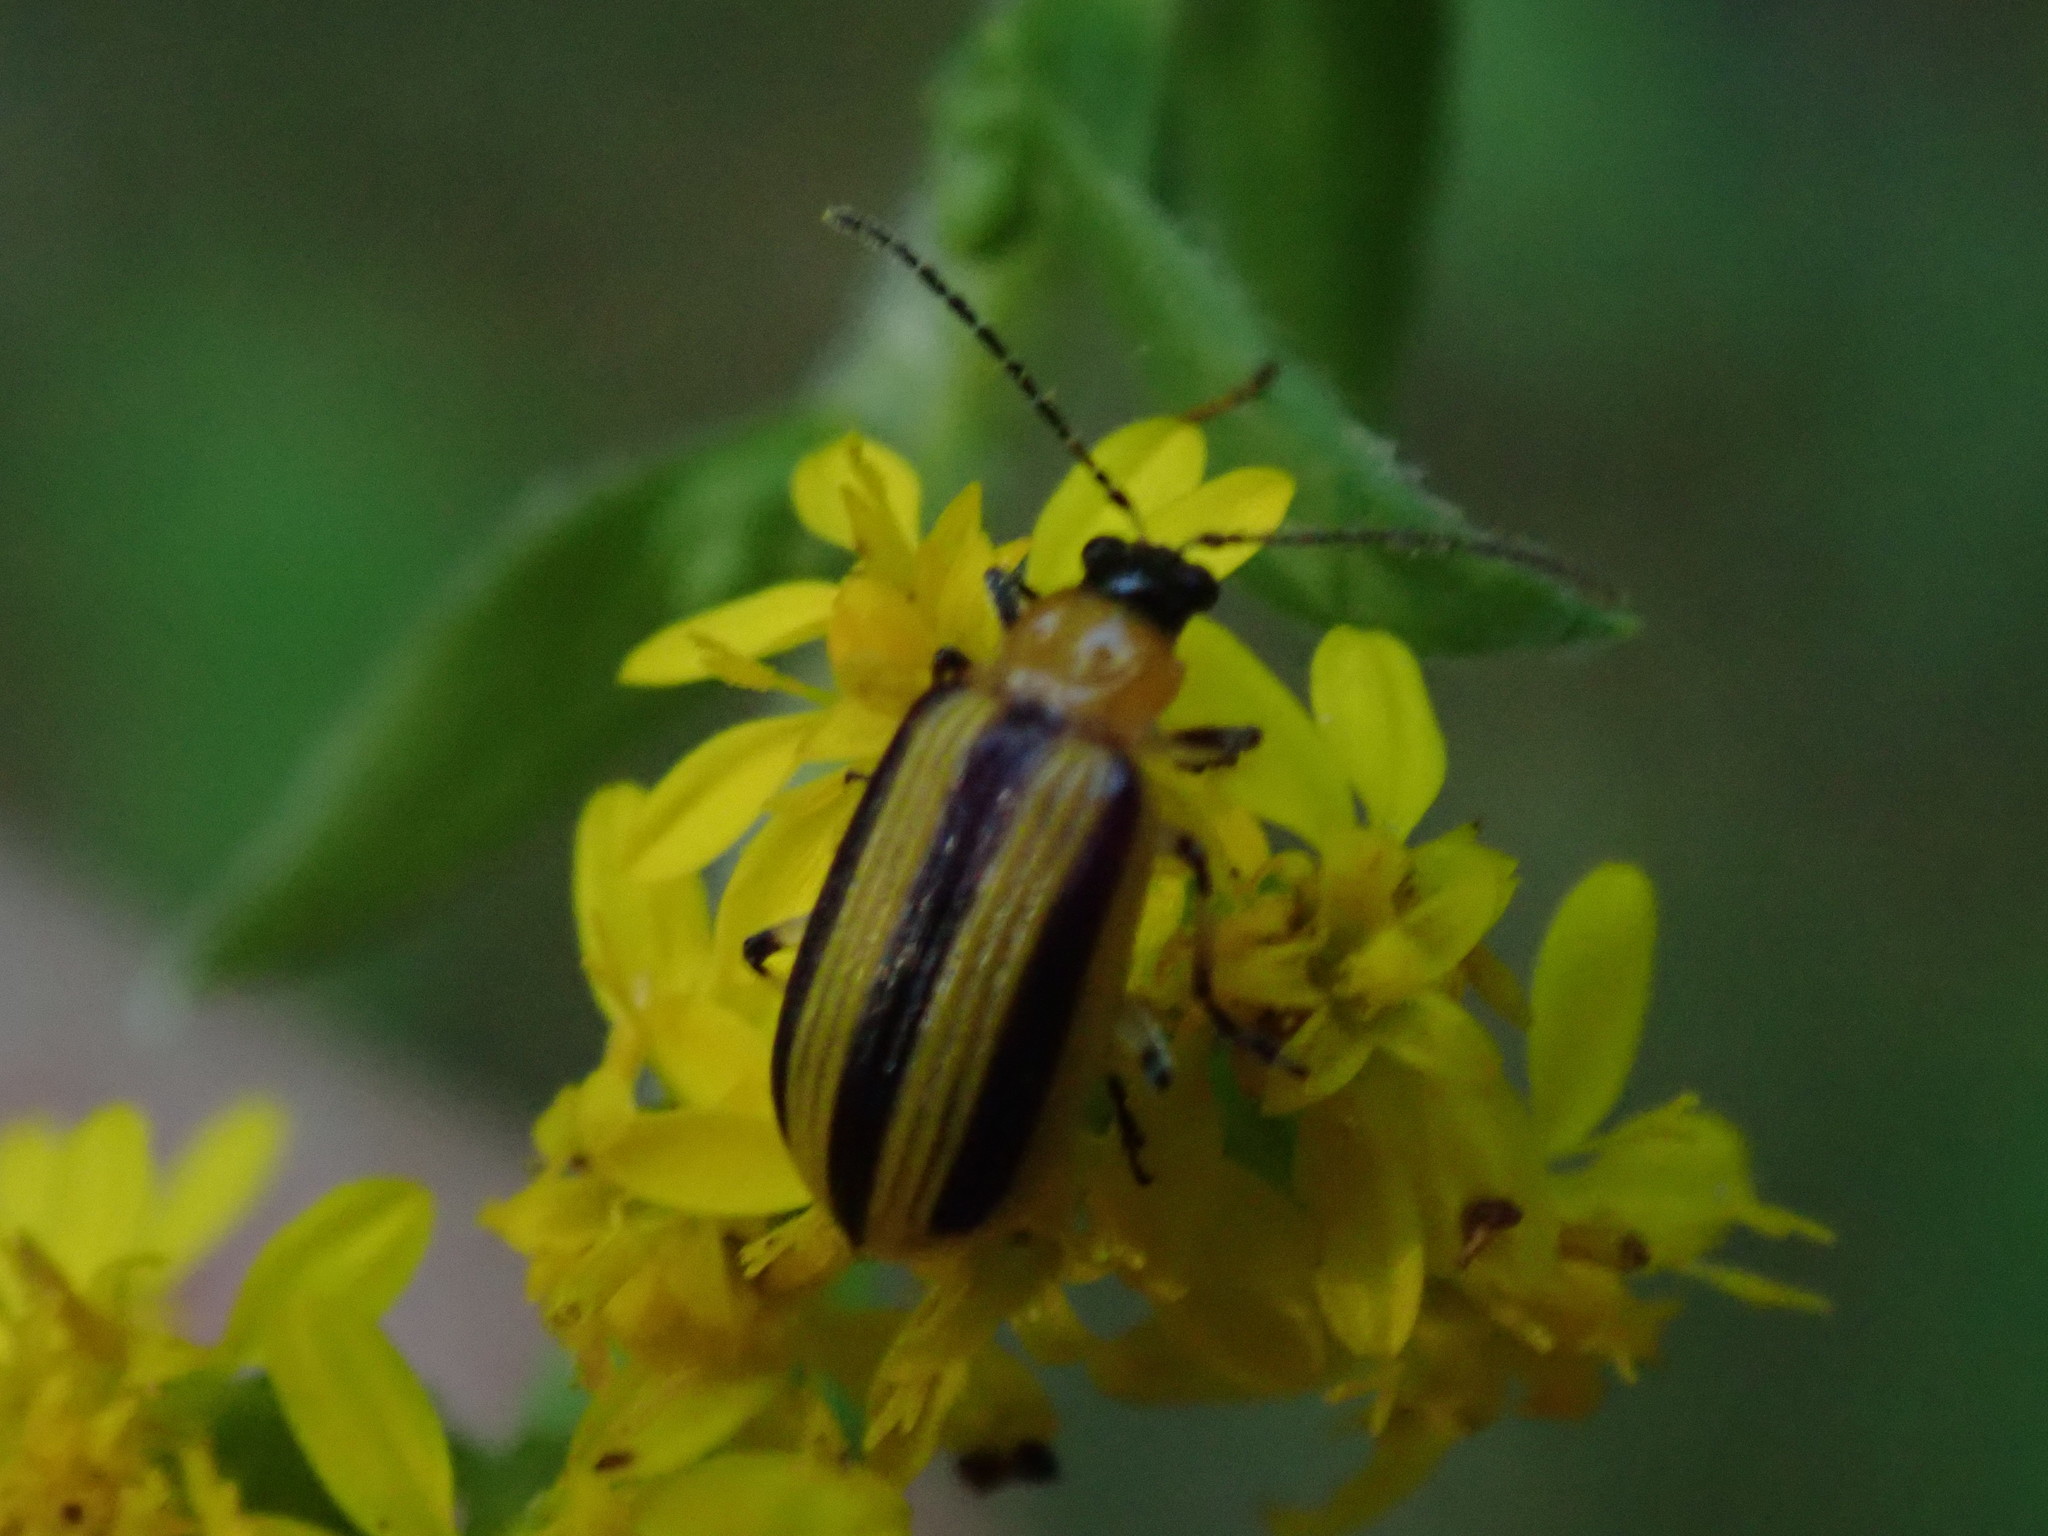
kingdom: Animalia
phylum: Arthropoda
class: Insecta
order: Coleoptera
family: Chrysomelidae
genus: Acalymma
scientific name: Acalymma vittatum
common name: Striped cucumber beetle
